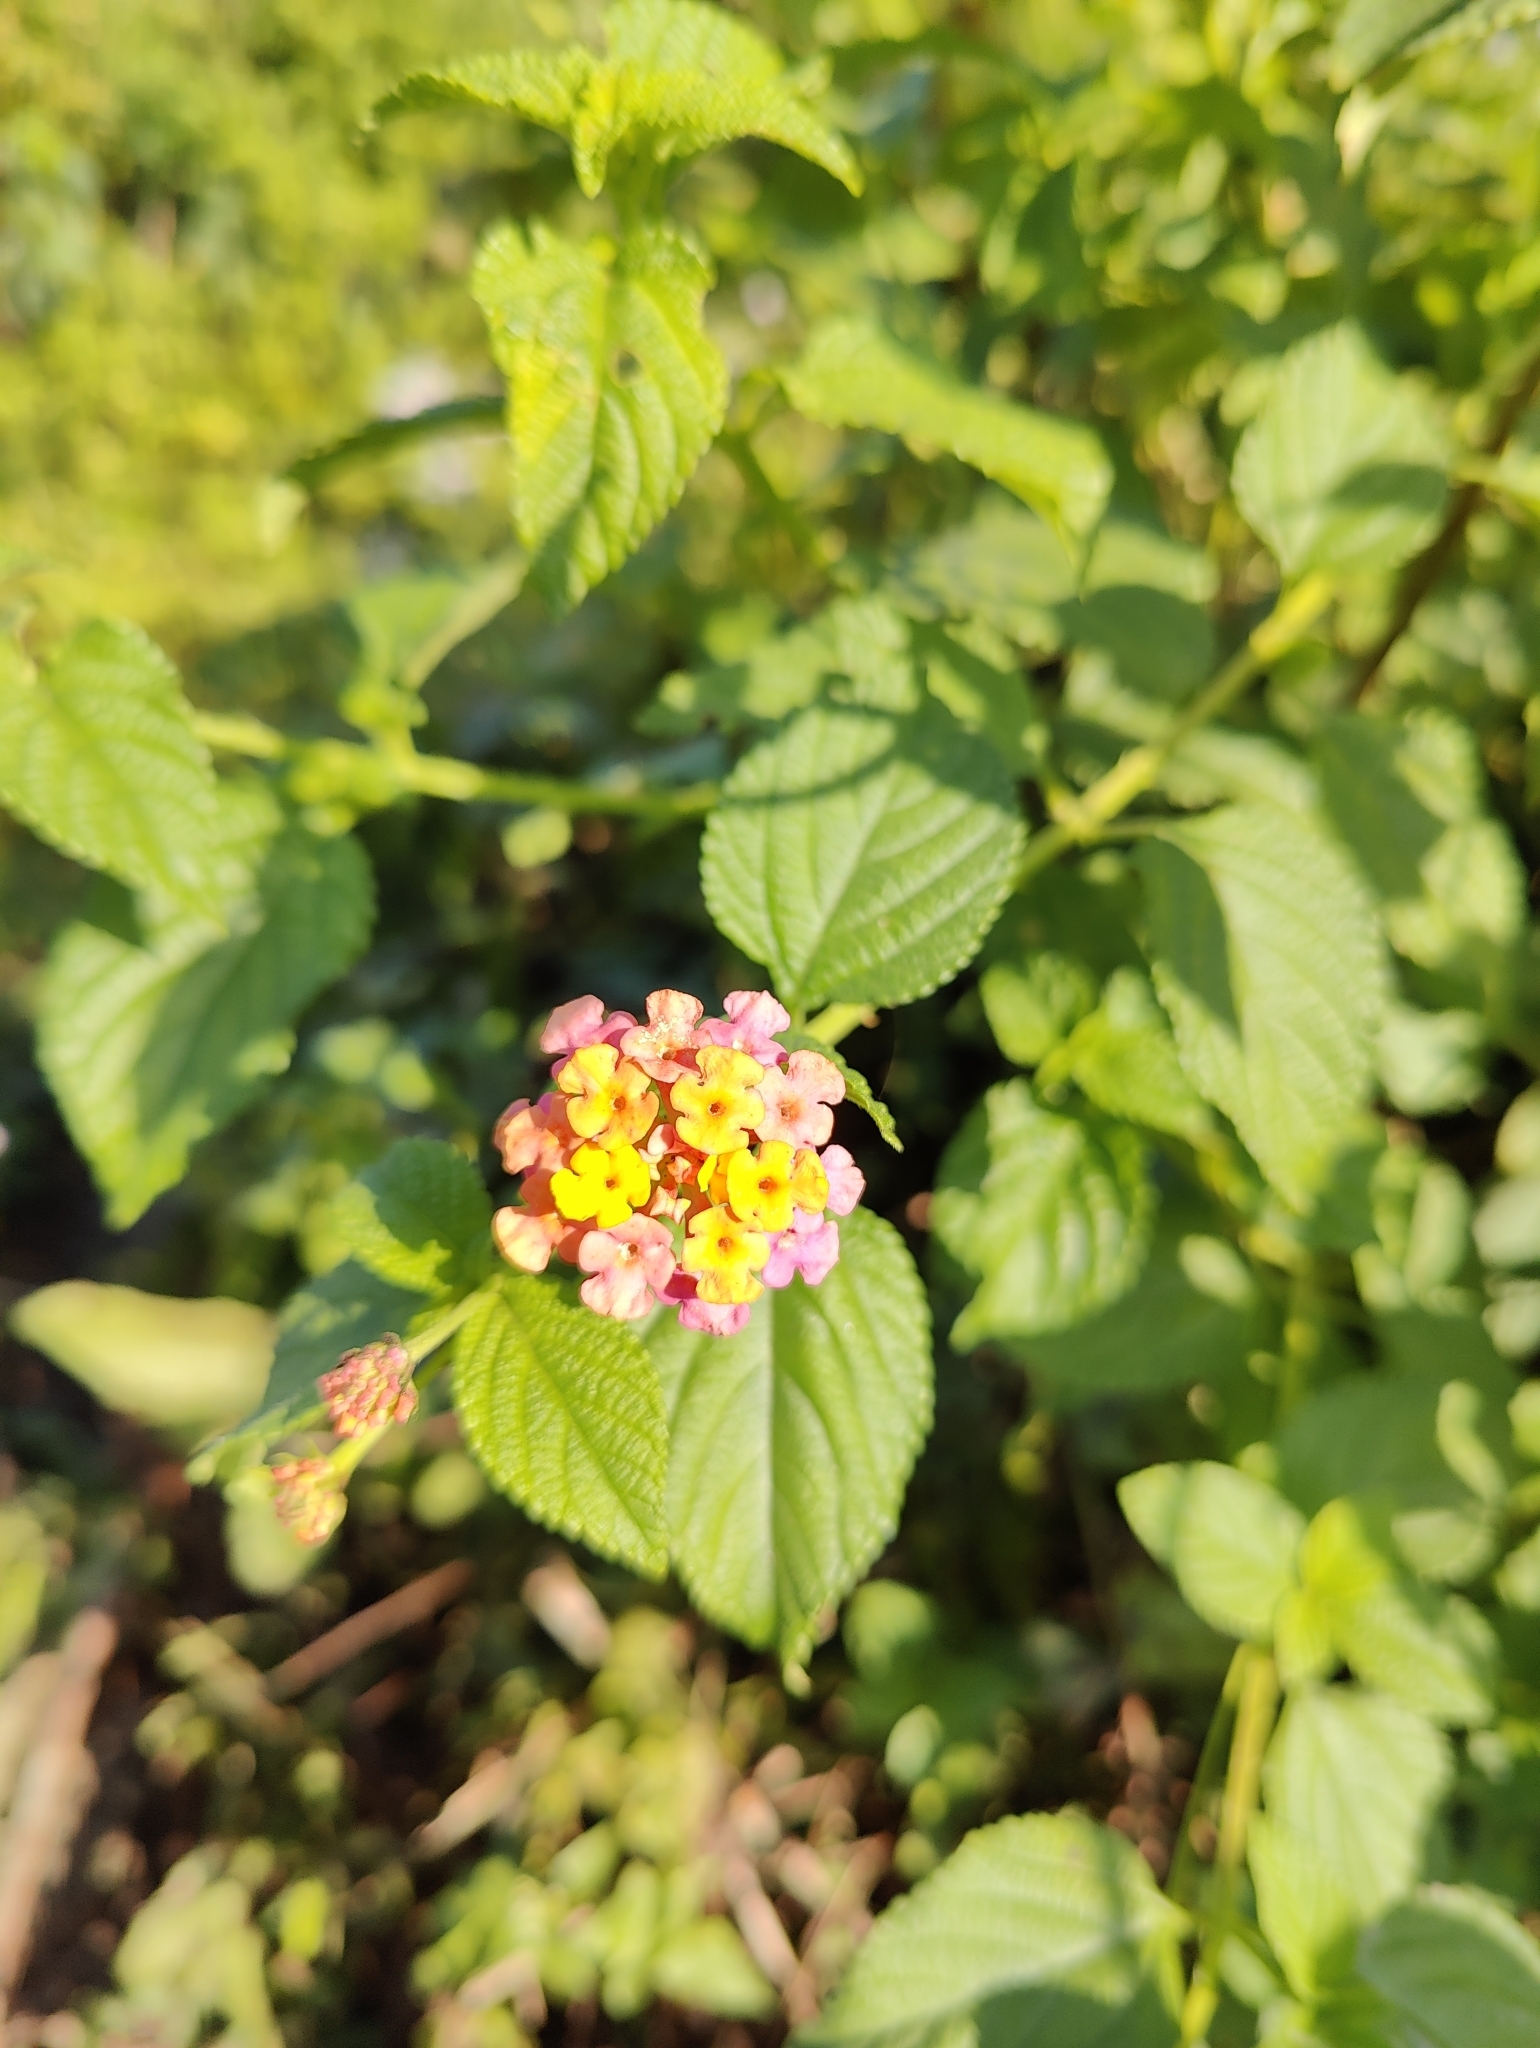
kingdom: Plantae
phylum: Tracheophyta
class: Magnoliopsida
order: Lamiales
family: Verbenaceae
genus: Lantana
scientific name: Lantana camara
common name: Lantana
